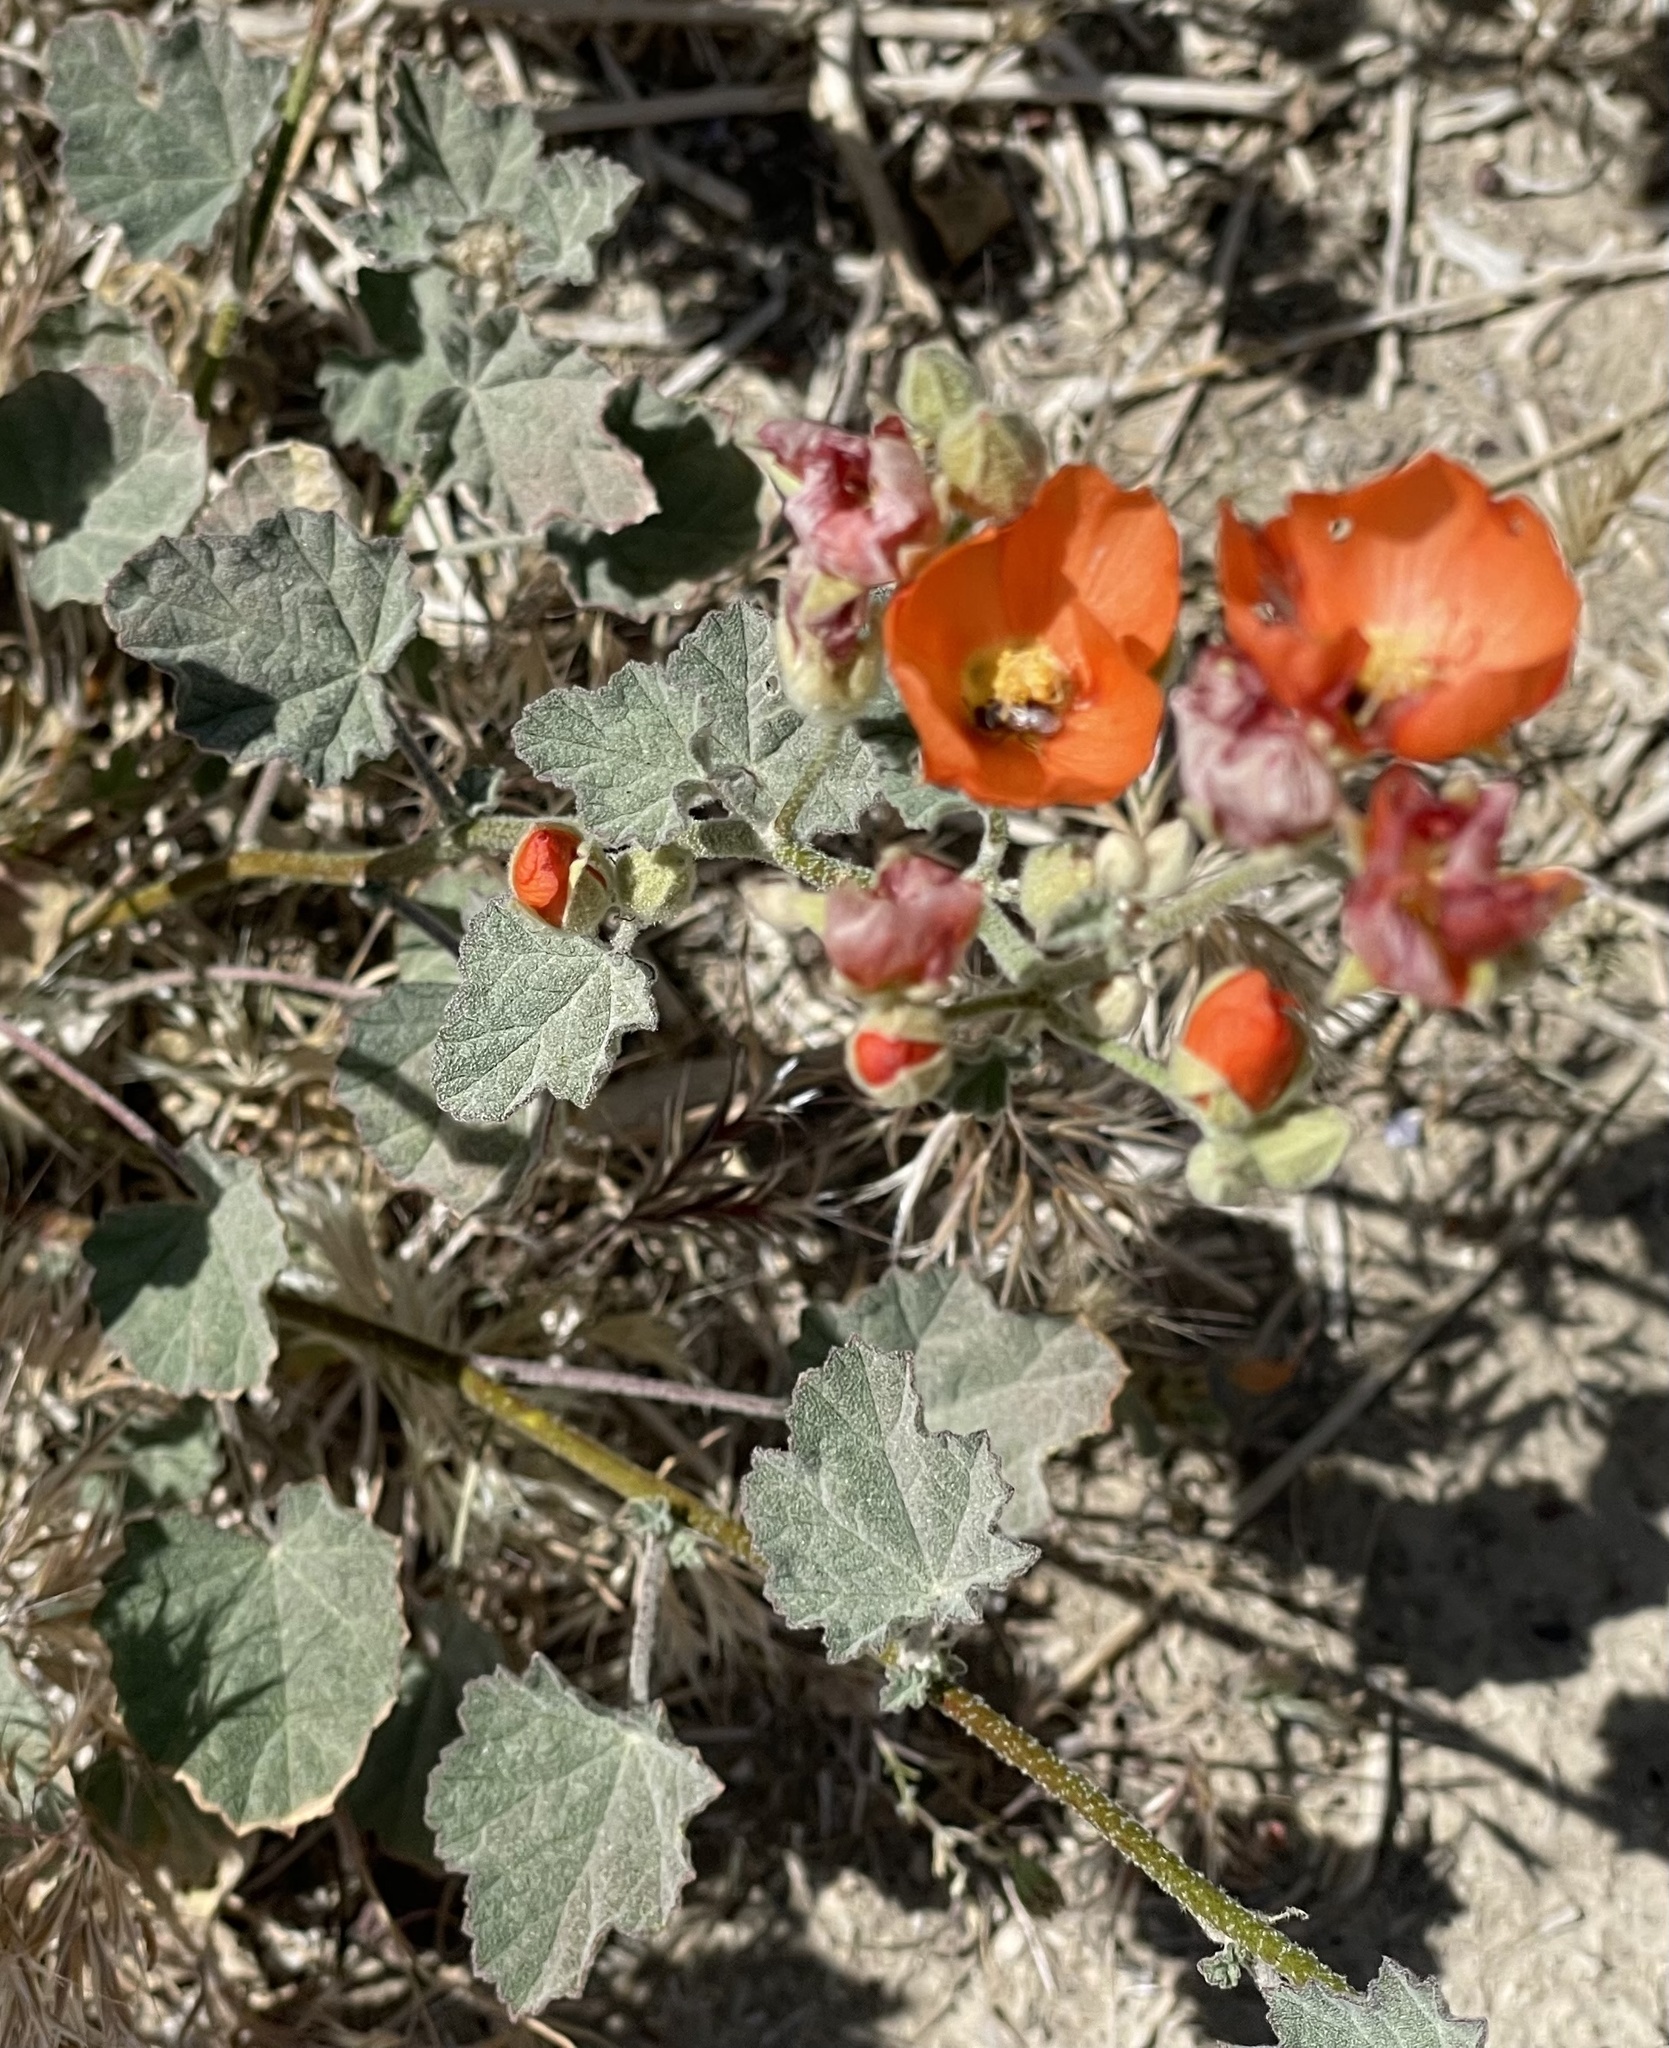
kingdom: Plantae
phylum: Tracheophyta
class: Magnoliopsida
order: Malvales
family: Malvaceae
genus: Sphaeralcea
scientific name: Sphaeralcea ambigua
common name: Apricot globe-mallow
